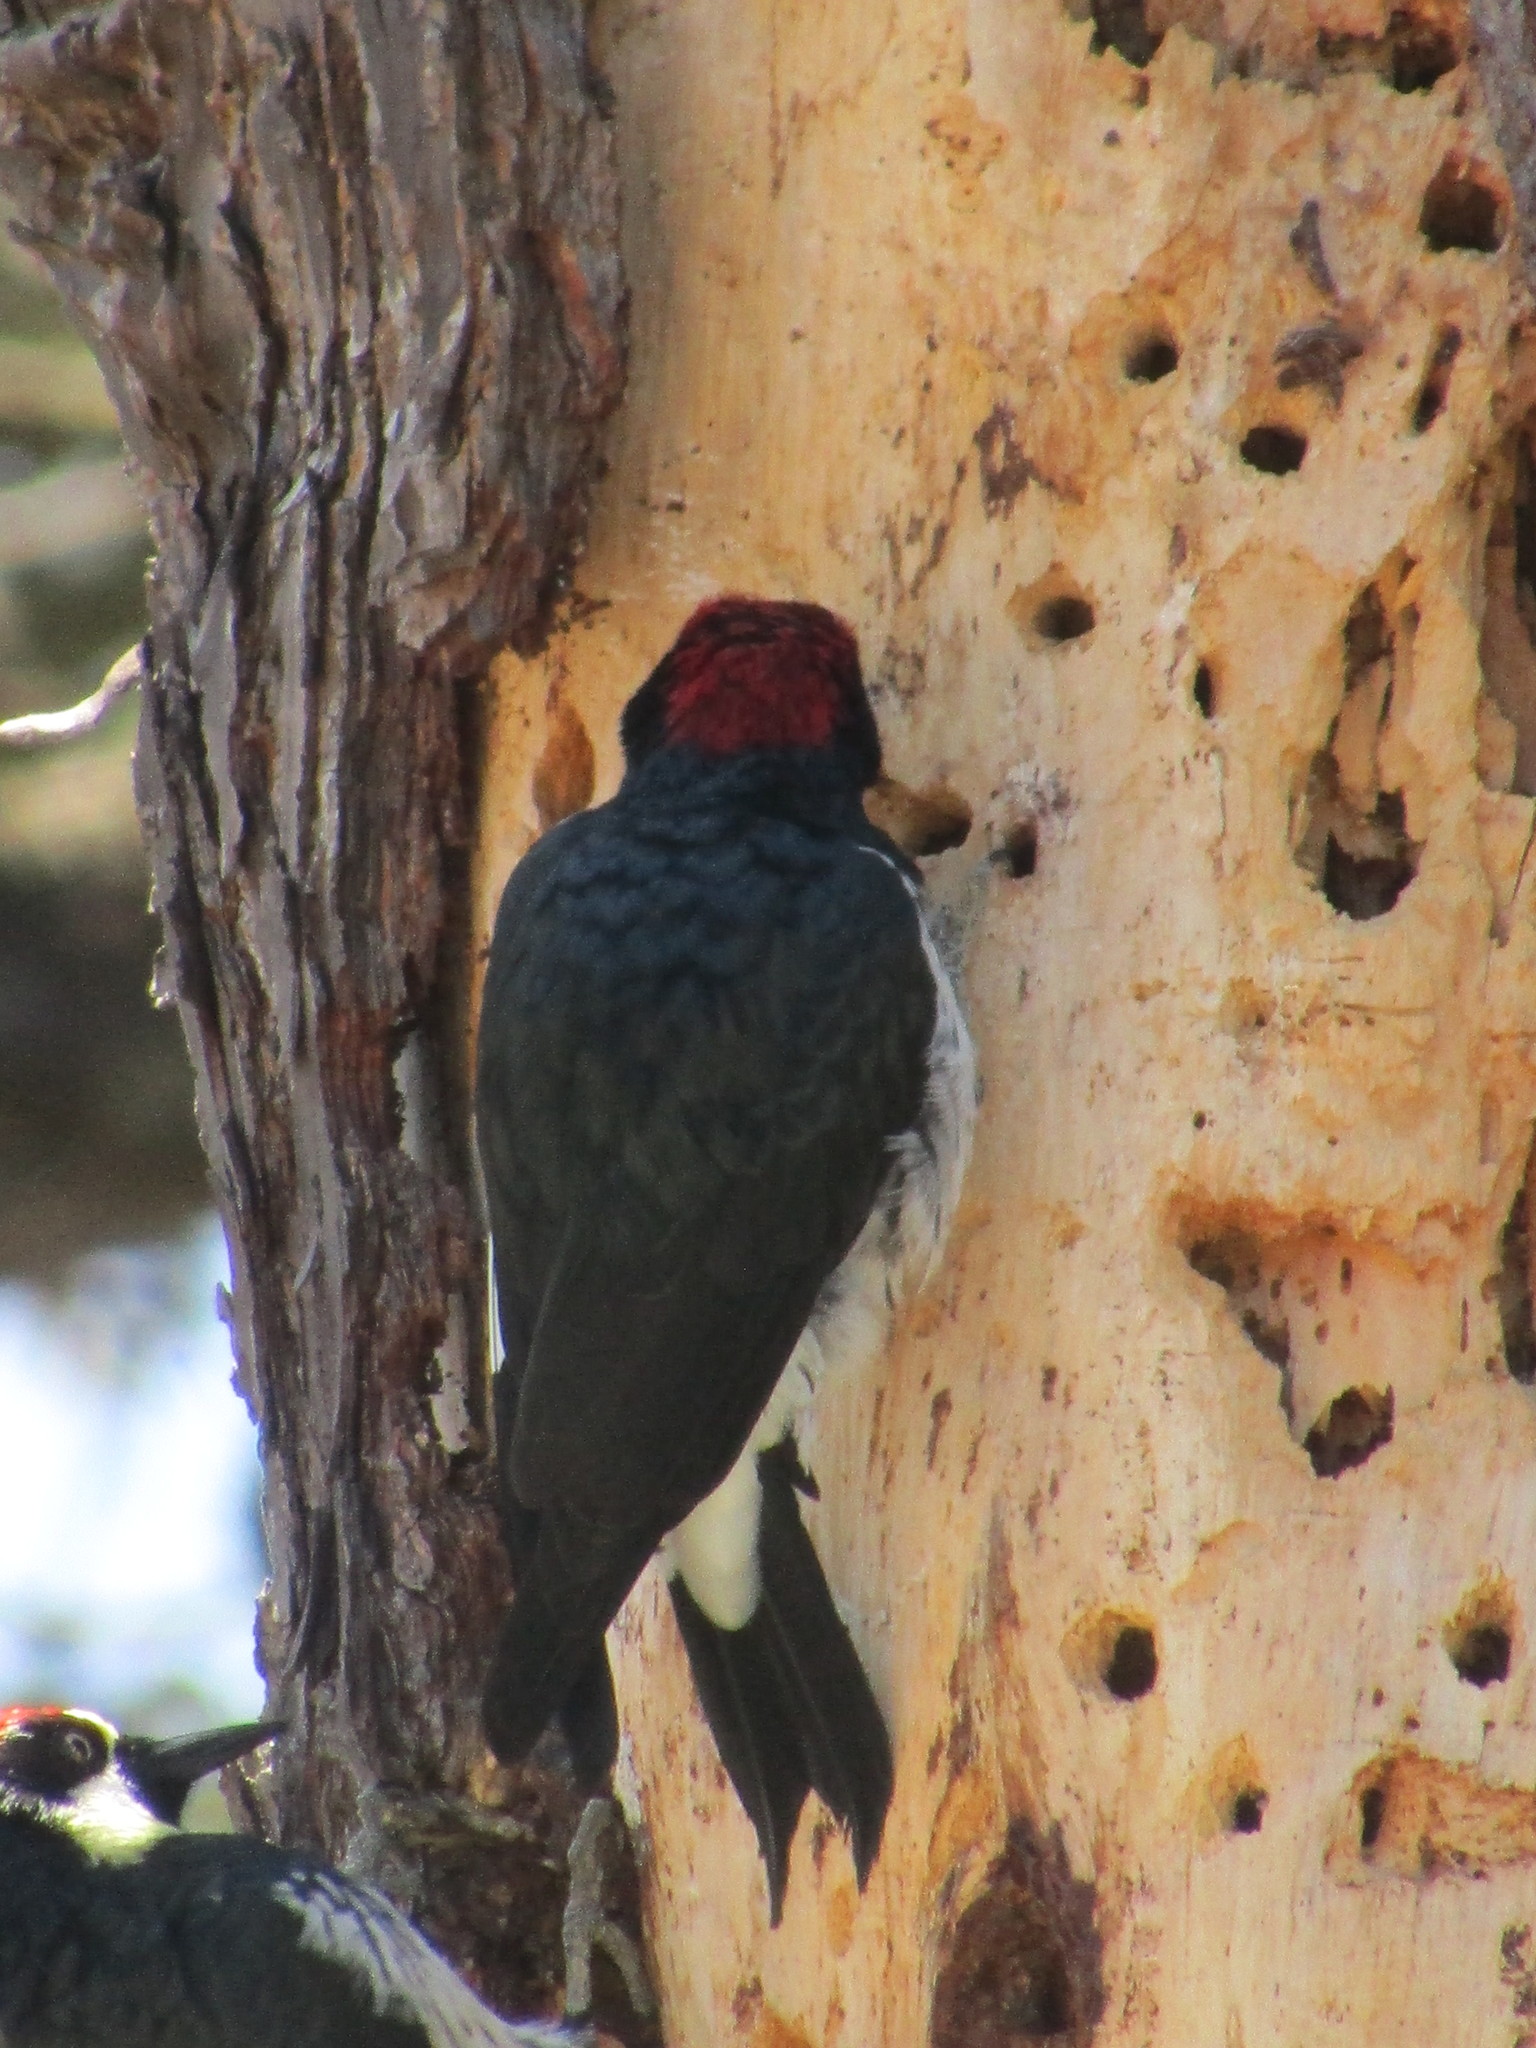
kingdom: Animalia
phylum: Chordata
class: Aves
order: Piciformes
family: Picidae
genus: Melanerpes
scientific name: Melanerpes formicivorus
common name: Acorn woodpecker
